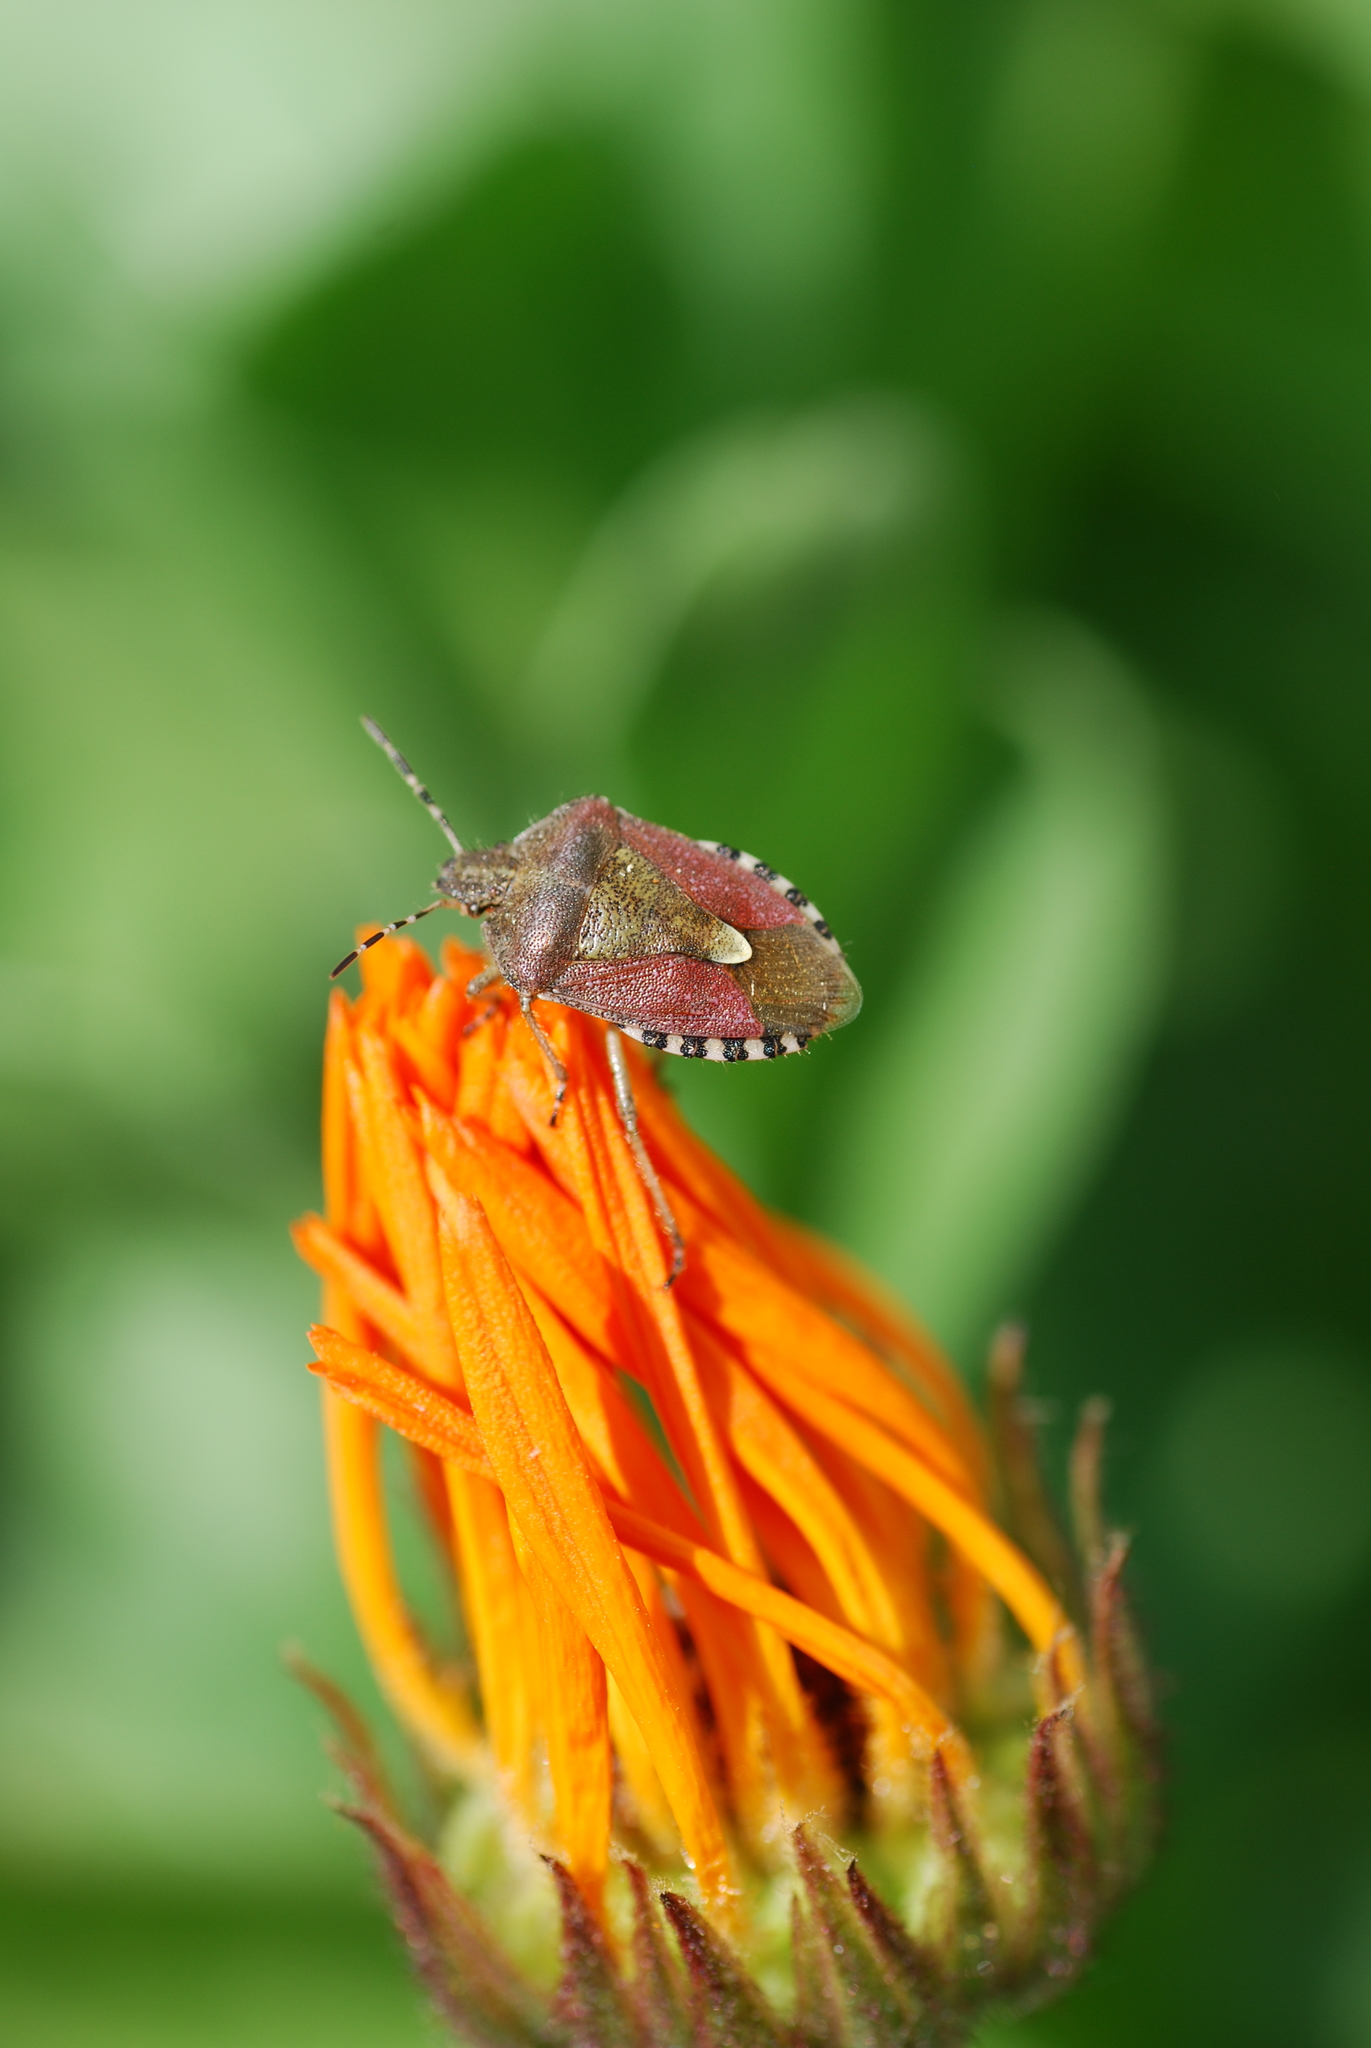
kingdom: Animalia
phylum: Arthropoda
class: Insecta
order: Hemiptera
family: Pentatomidae
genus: Dolycoris
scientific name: Dolycoris baccarum
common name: Sloe bug
